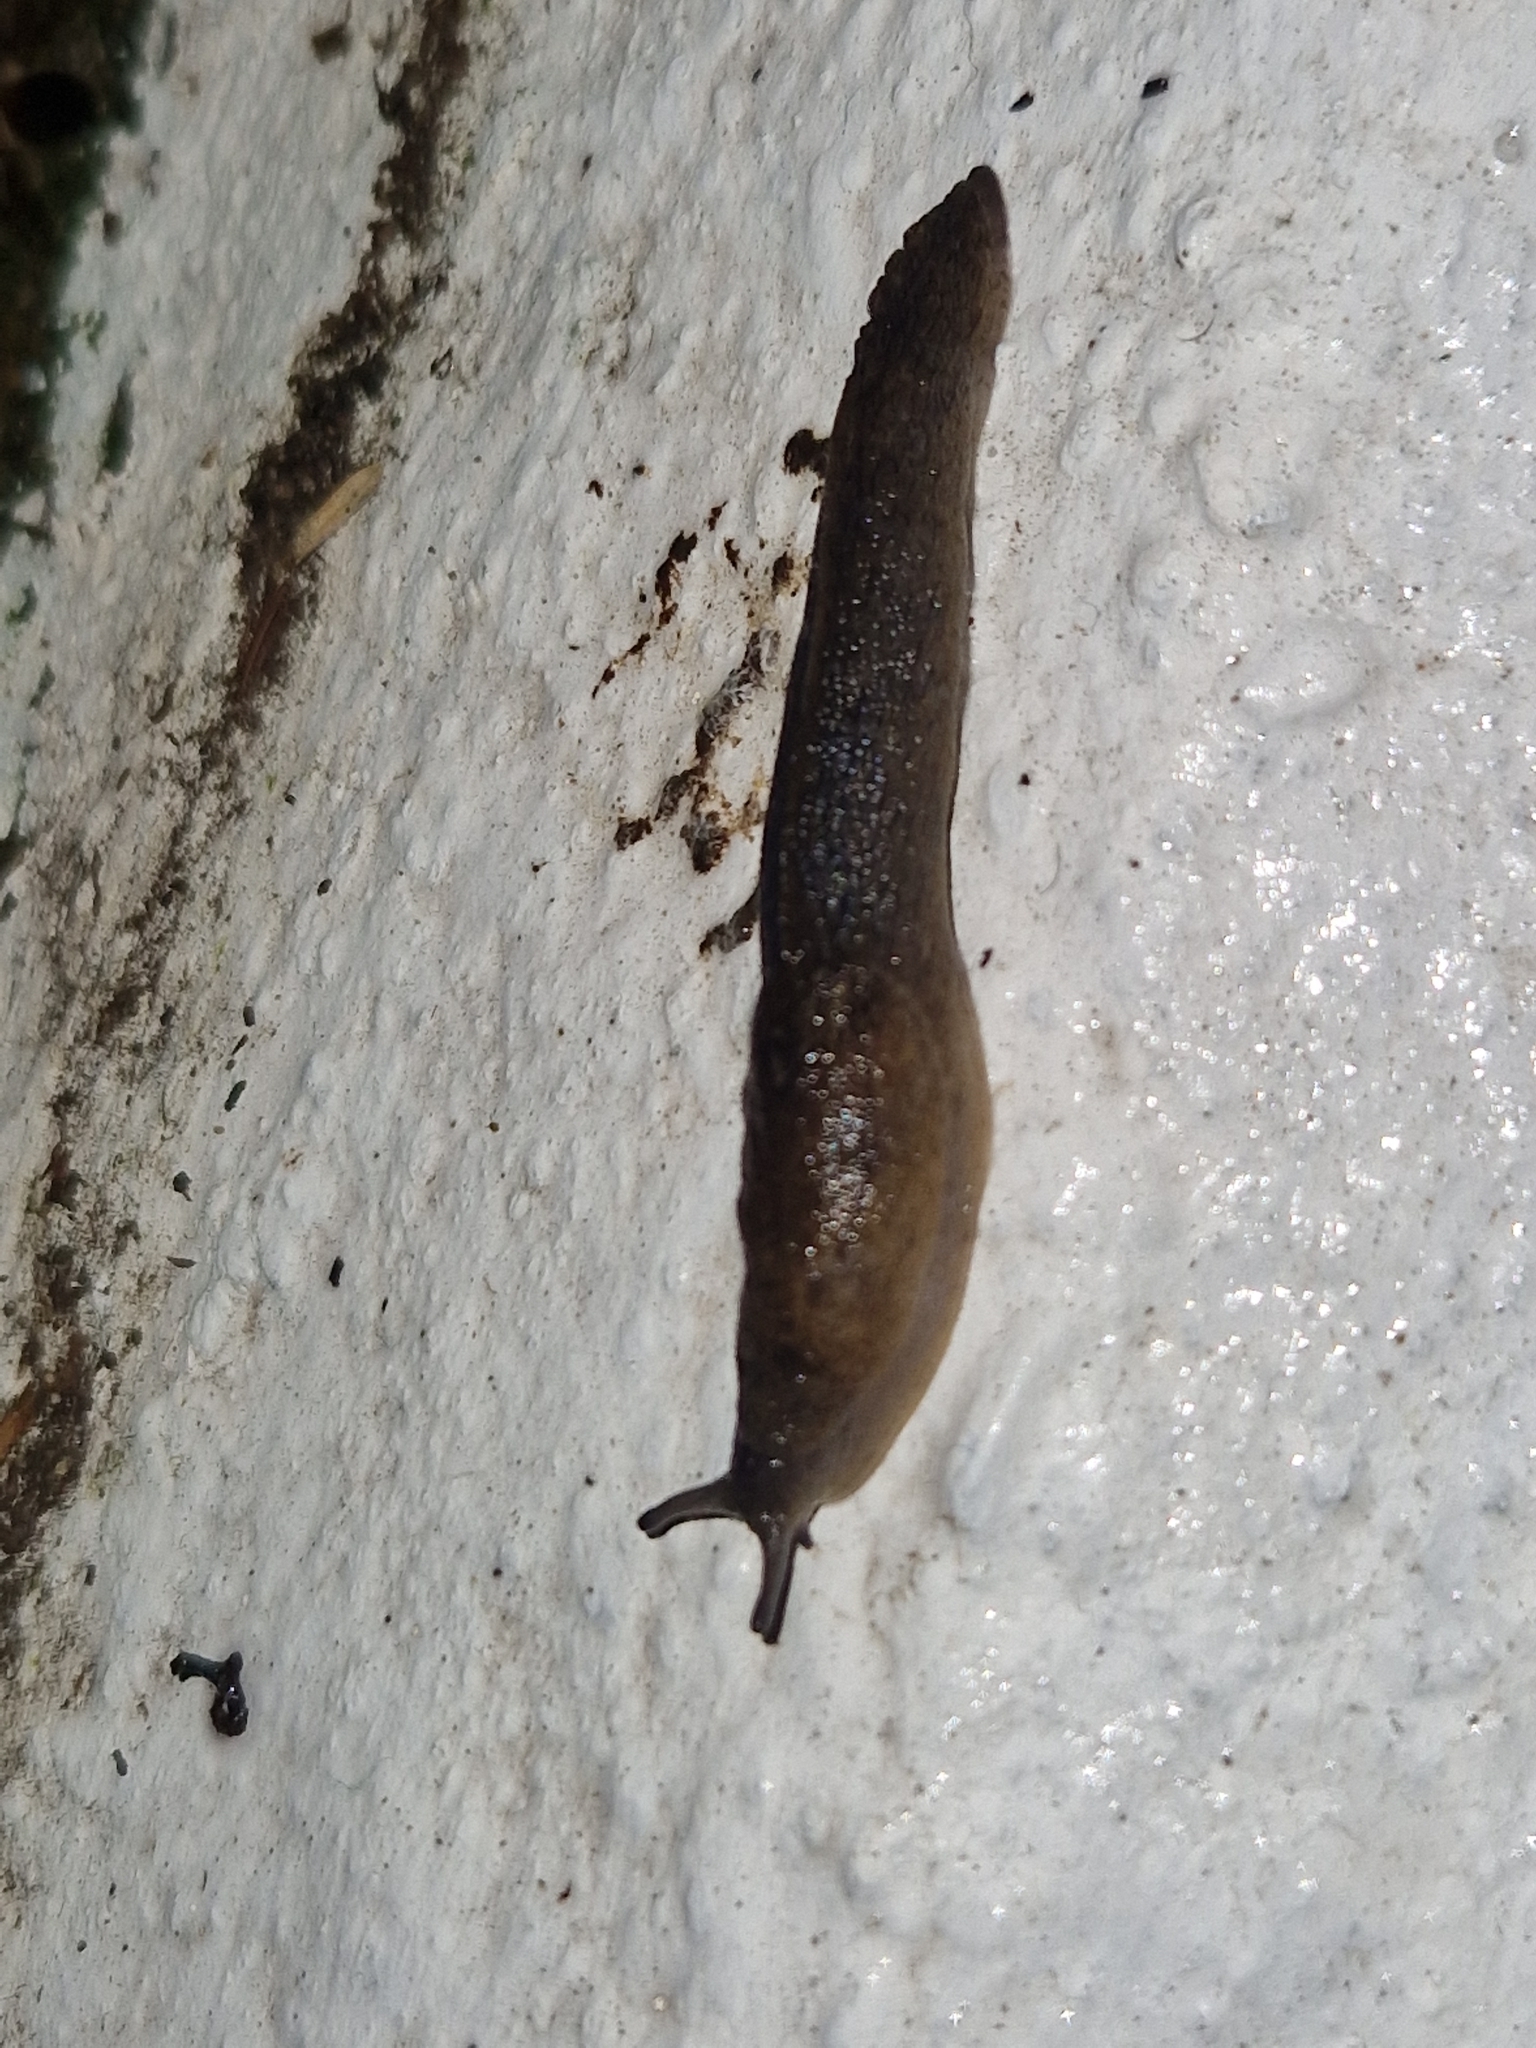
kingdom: Animalia
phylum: Mollusca
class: Gastropoda
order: Stylommatophora
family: Milacidae
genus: Tandonia
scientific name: Tandonia sowerbyi
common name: Keeled slug
